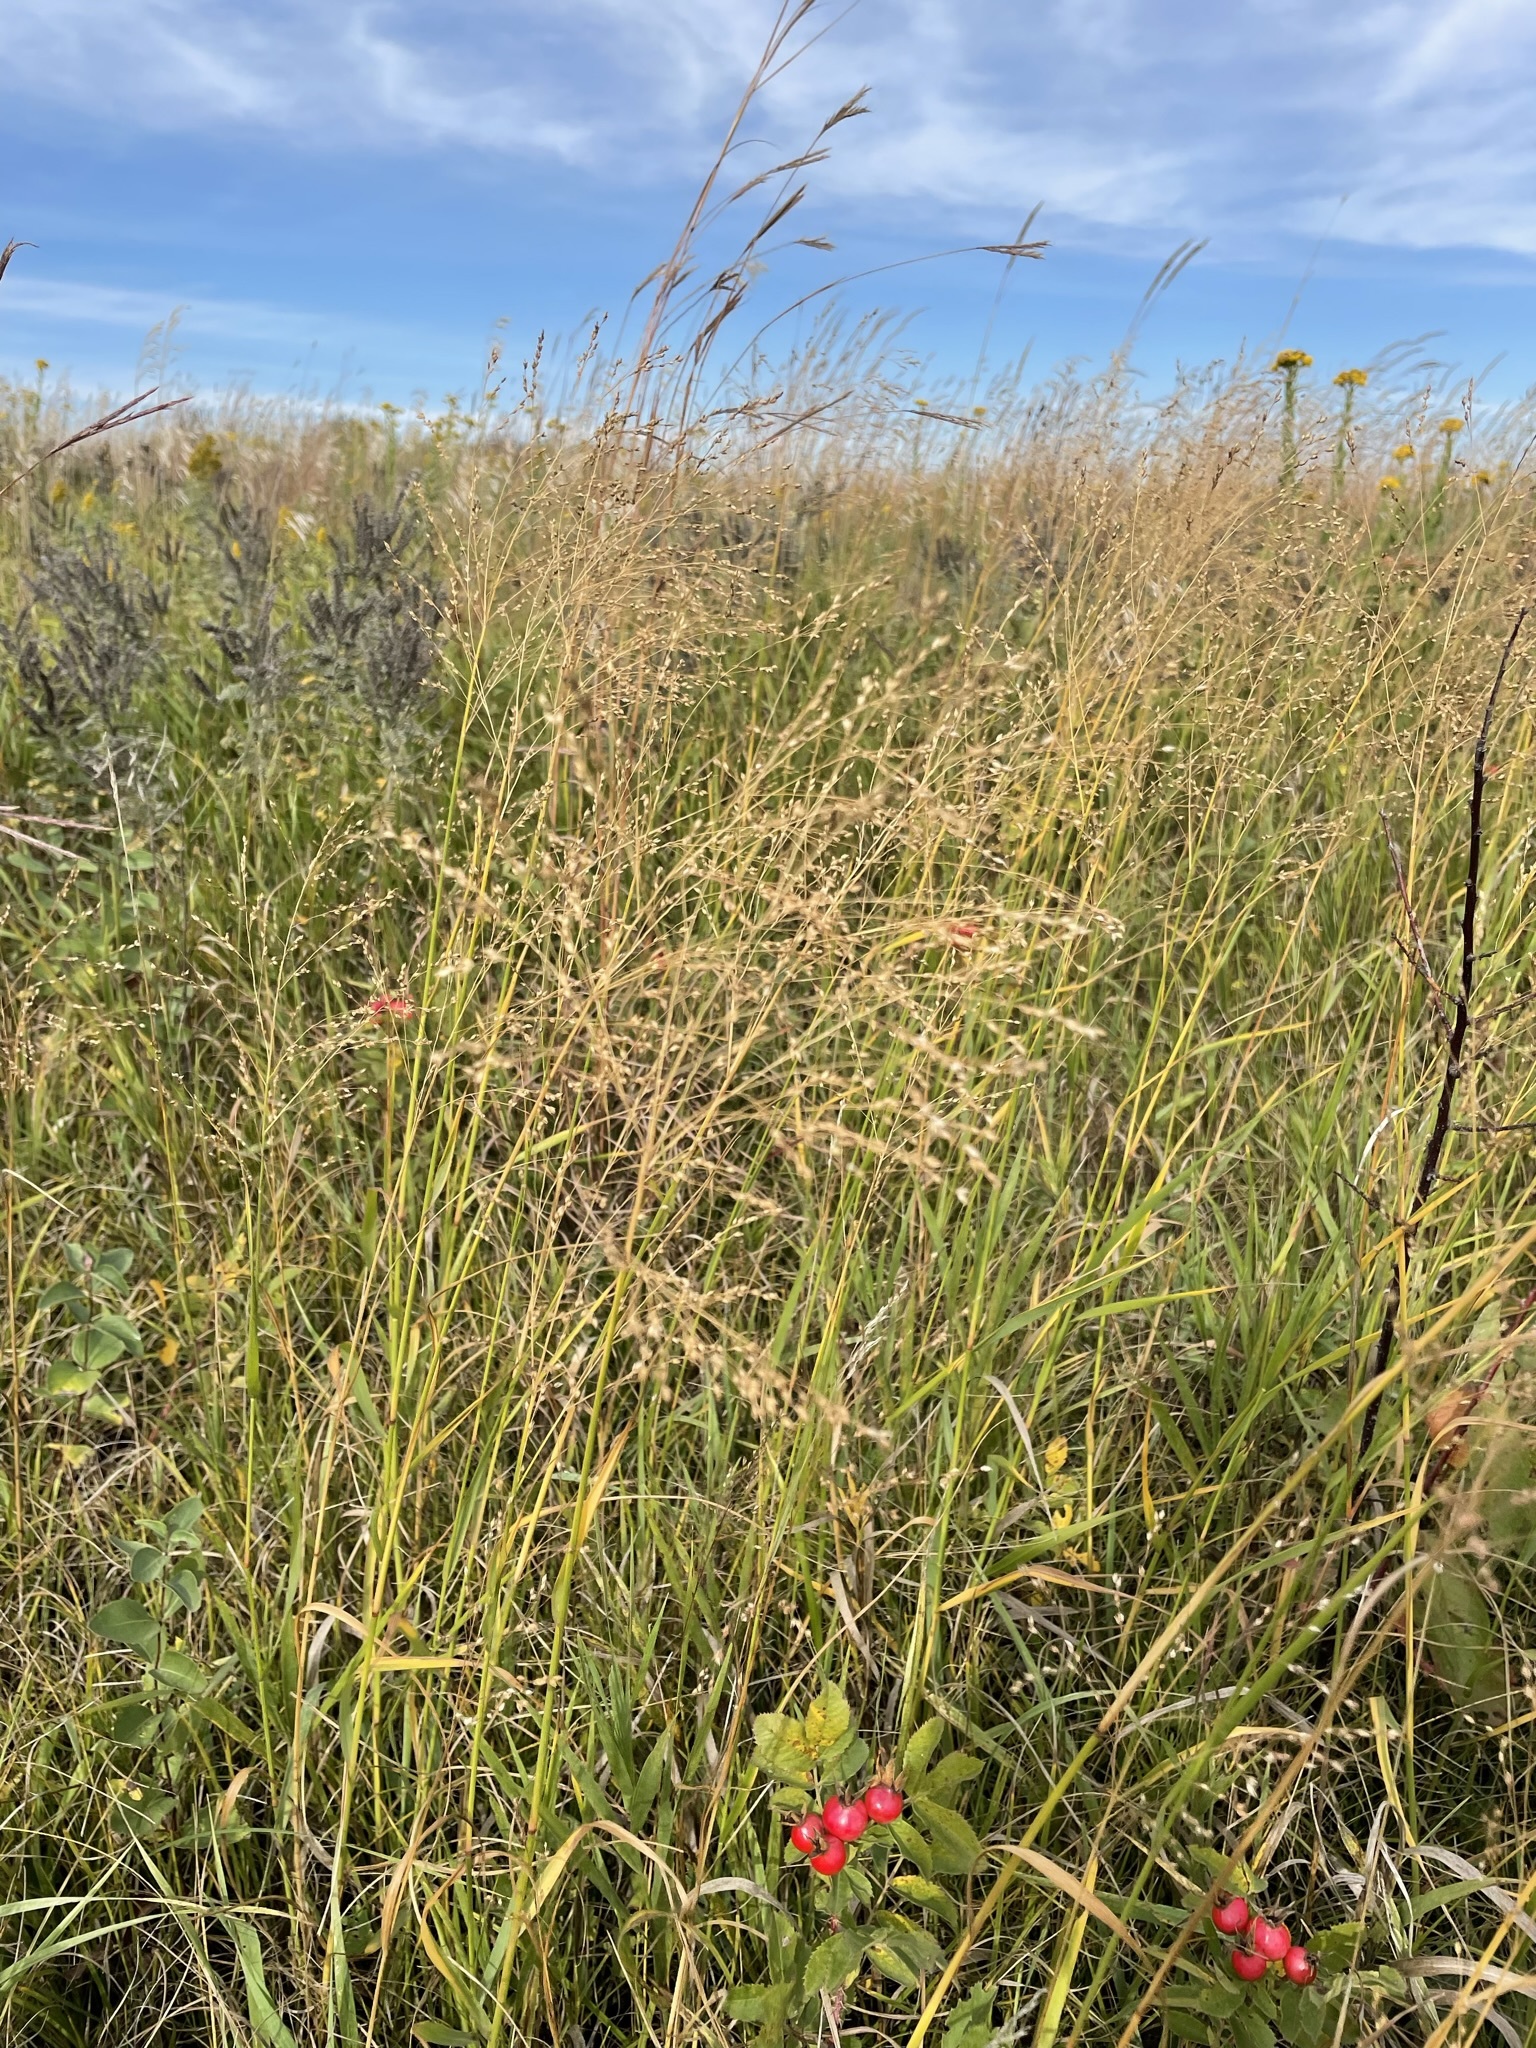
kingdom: Plantae
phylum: Tracheophyta
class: Liliopsida
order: Poales
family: Poaceae
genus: Panicum
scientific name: Panicum virgatum
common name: Switchgrass
